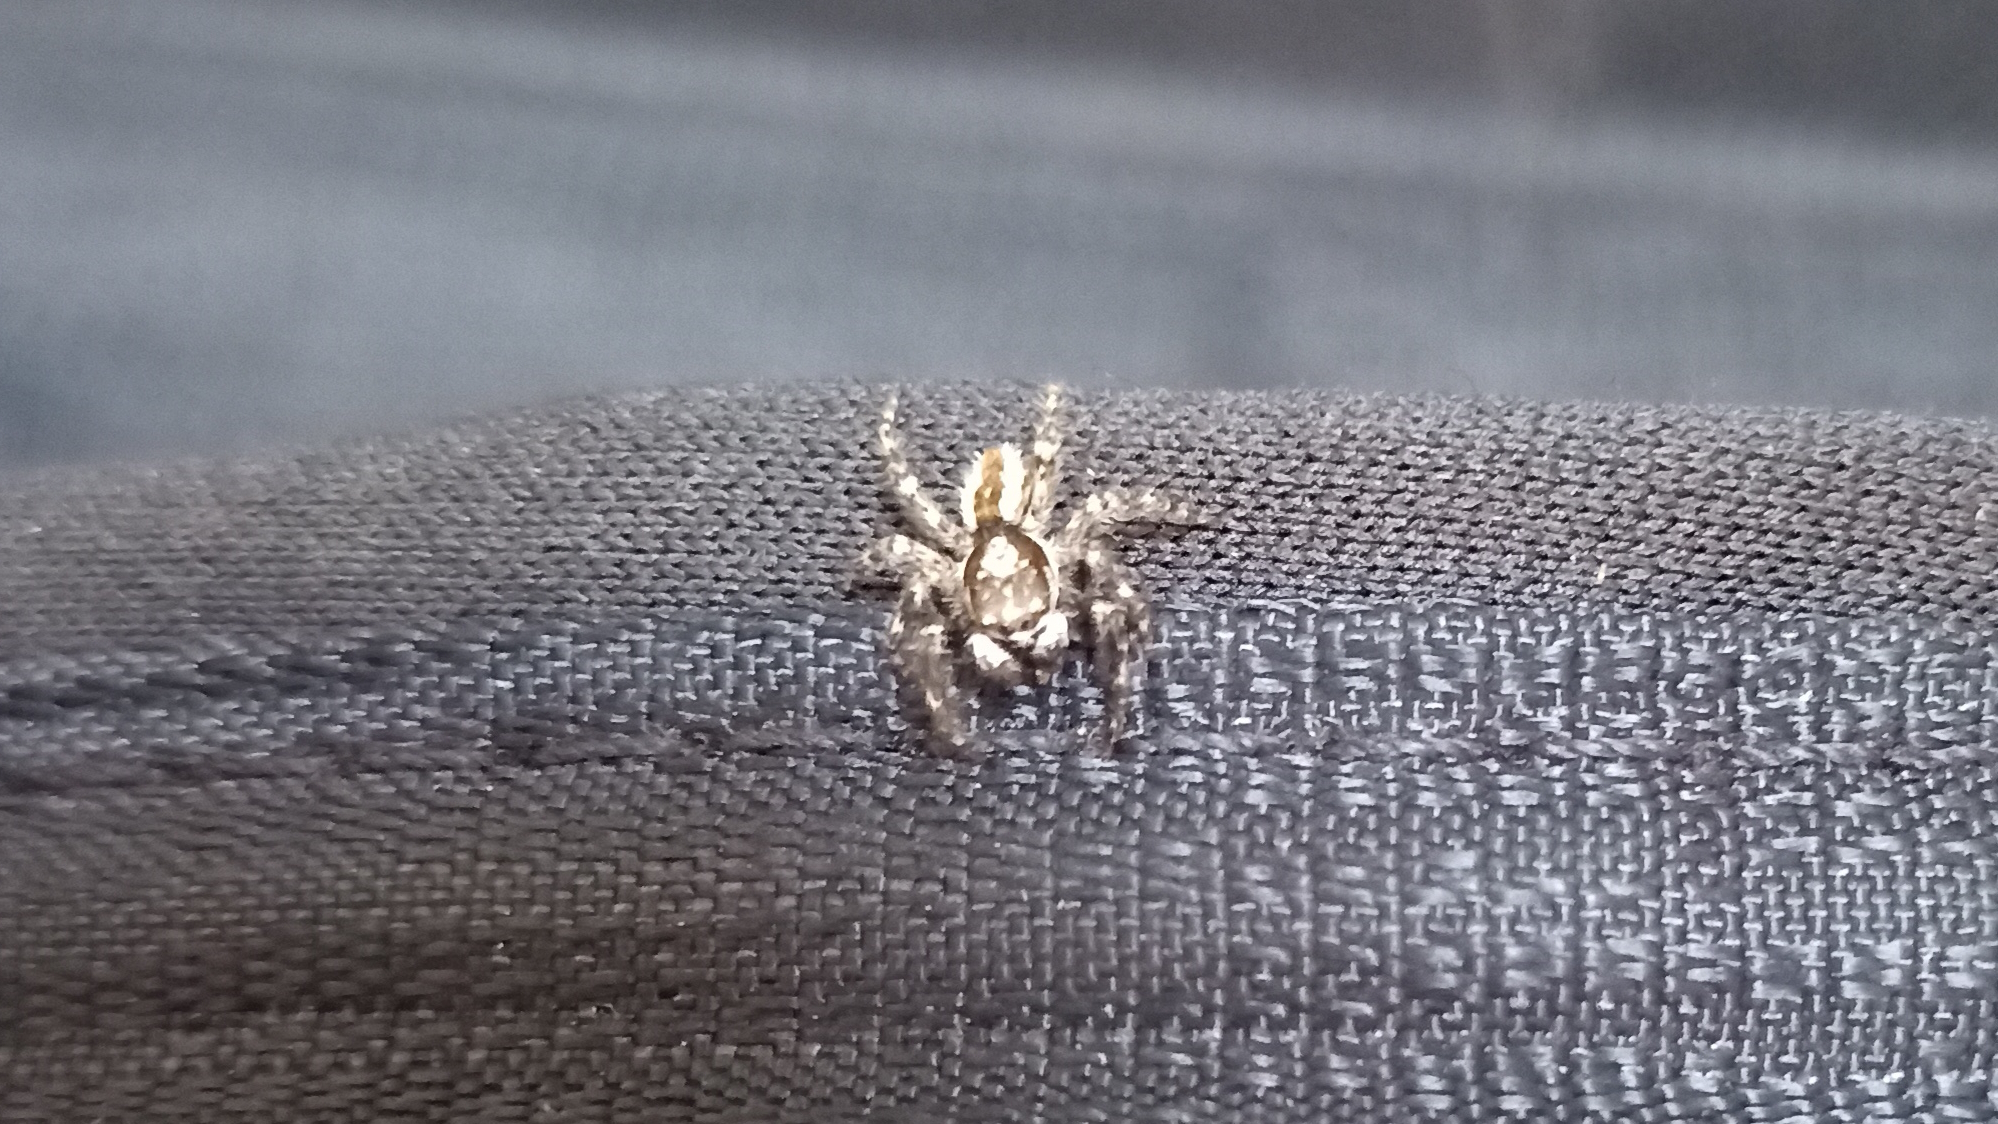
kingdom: Animalia
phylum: Arthropoda
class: Arachnida
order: Araneae
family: Salticidae
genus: Menemerus
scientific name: Menemerus bivittatus
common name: Gray wall jumper
